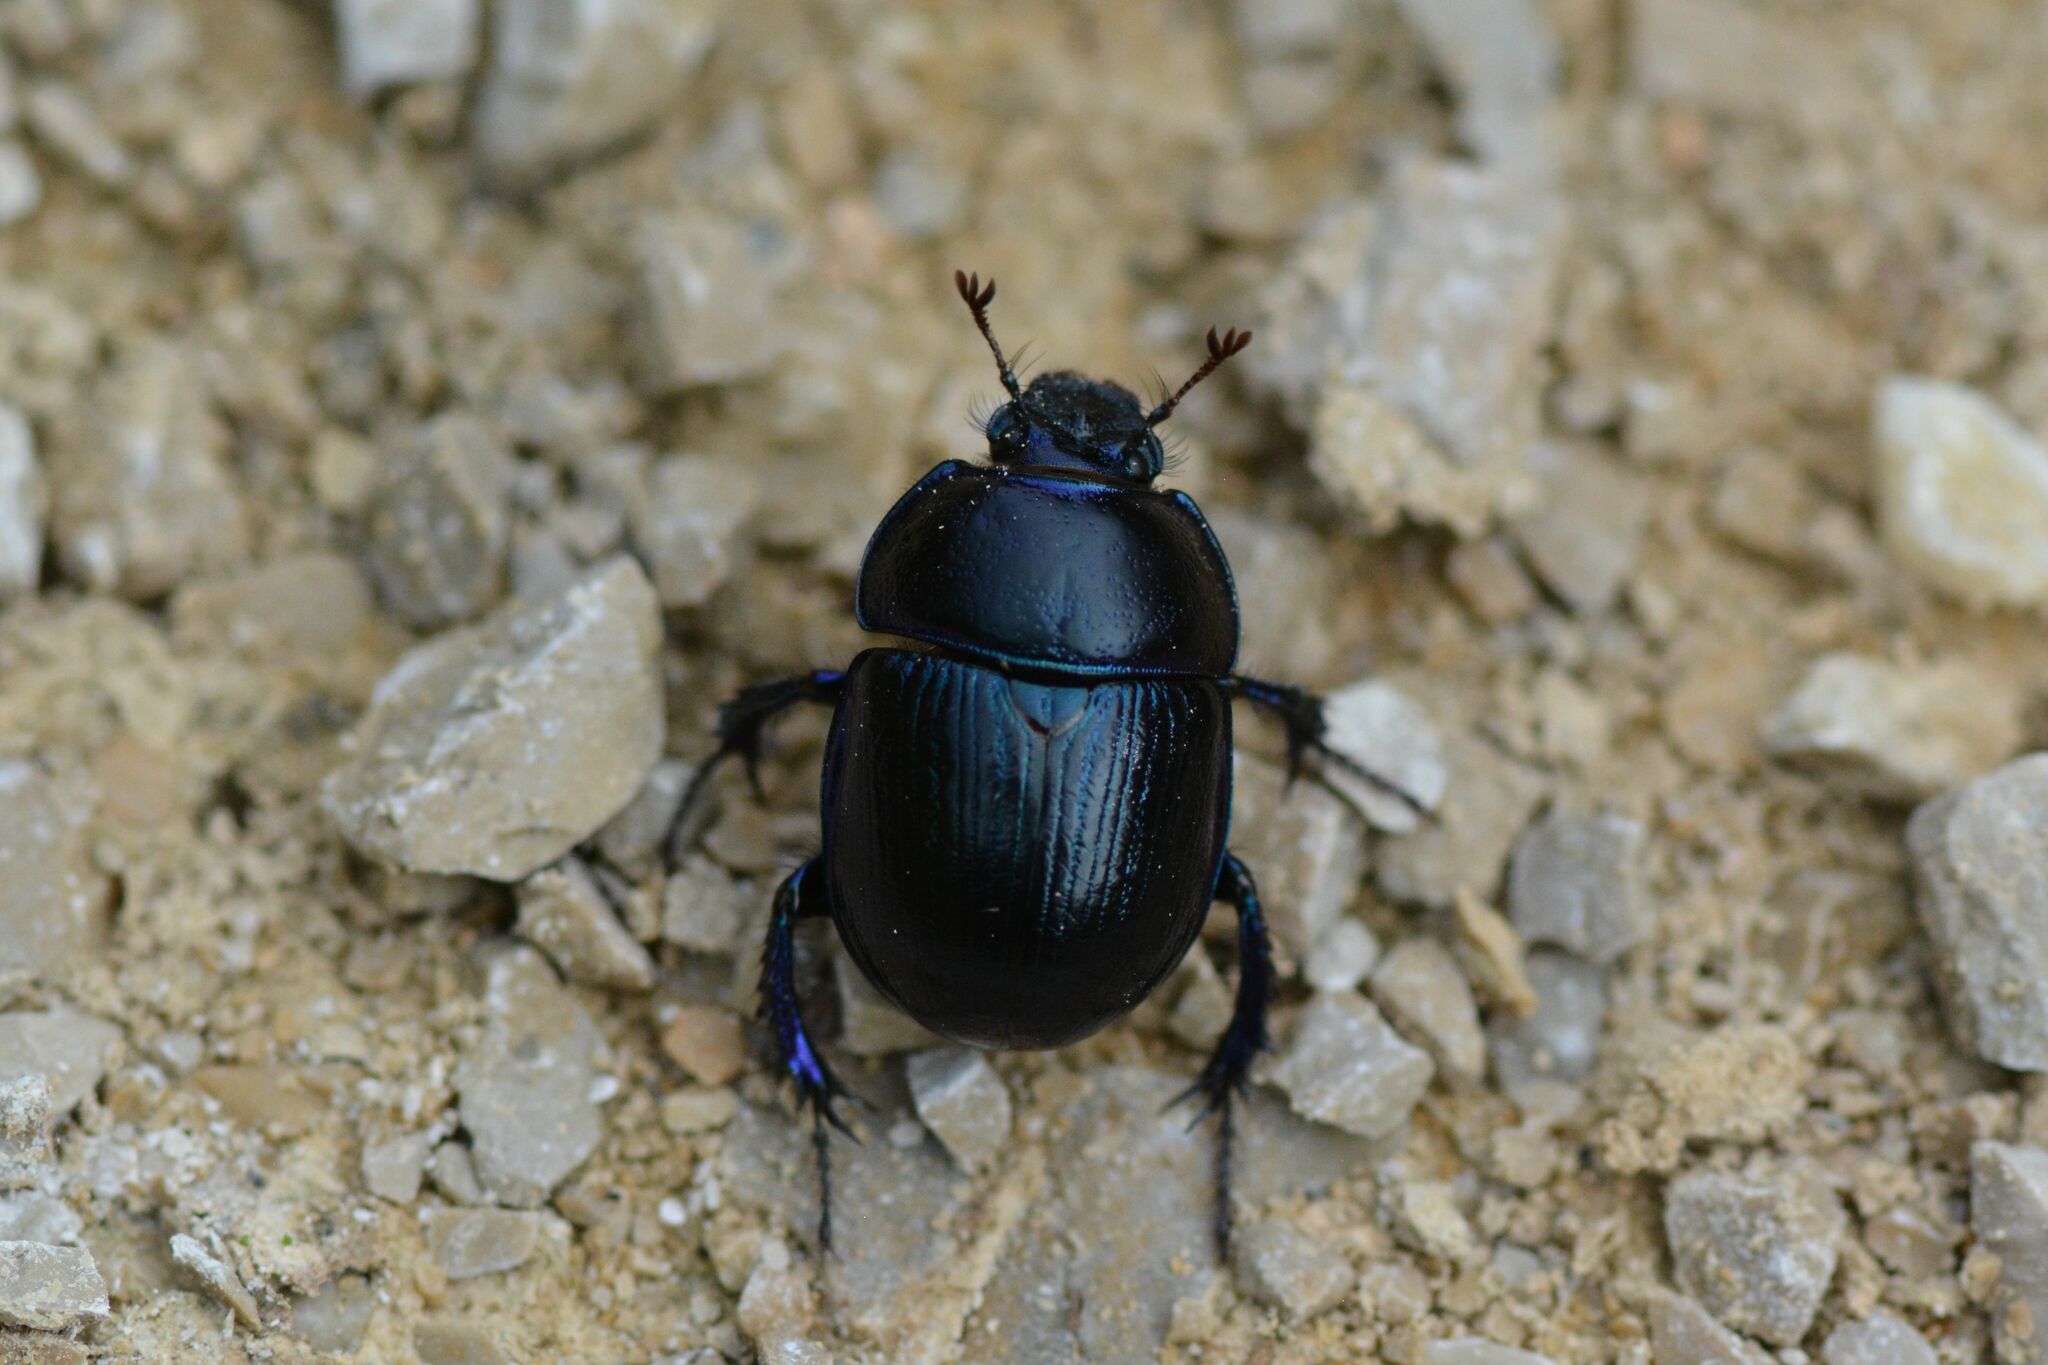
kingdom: Animalia
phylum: Arthropoda
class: Insecta
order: Coleoptera
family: Geotrupidae
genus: Anoplotrupes
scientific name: Anoplotrupes stercorosus
